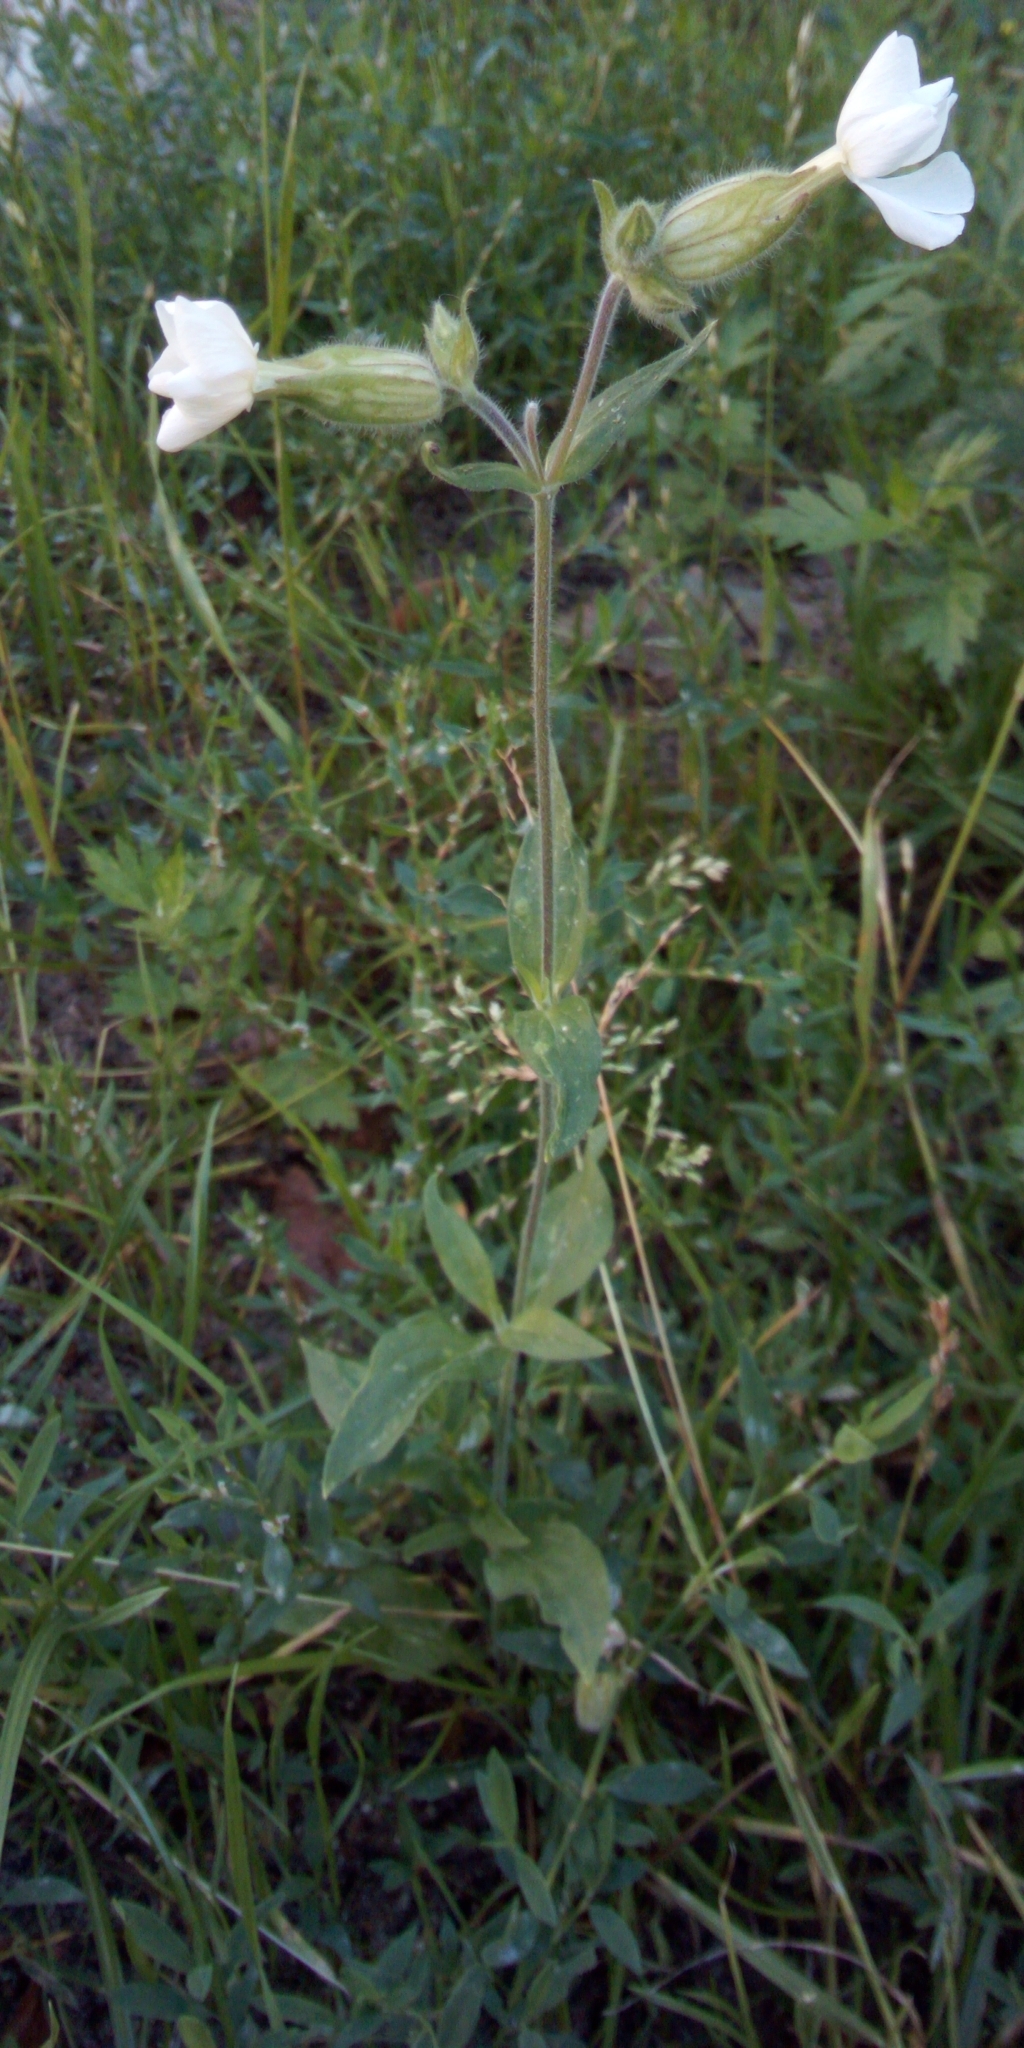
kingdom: Plantae
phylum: Tracheophyta
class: Magnoliopsida
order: Caryophyllales
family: Caryophyllaceae
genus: Silene
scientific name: Silene latifolia
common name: White campion
